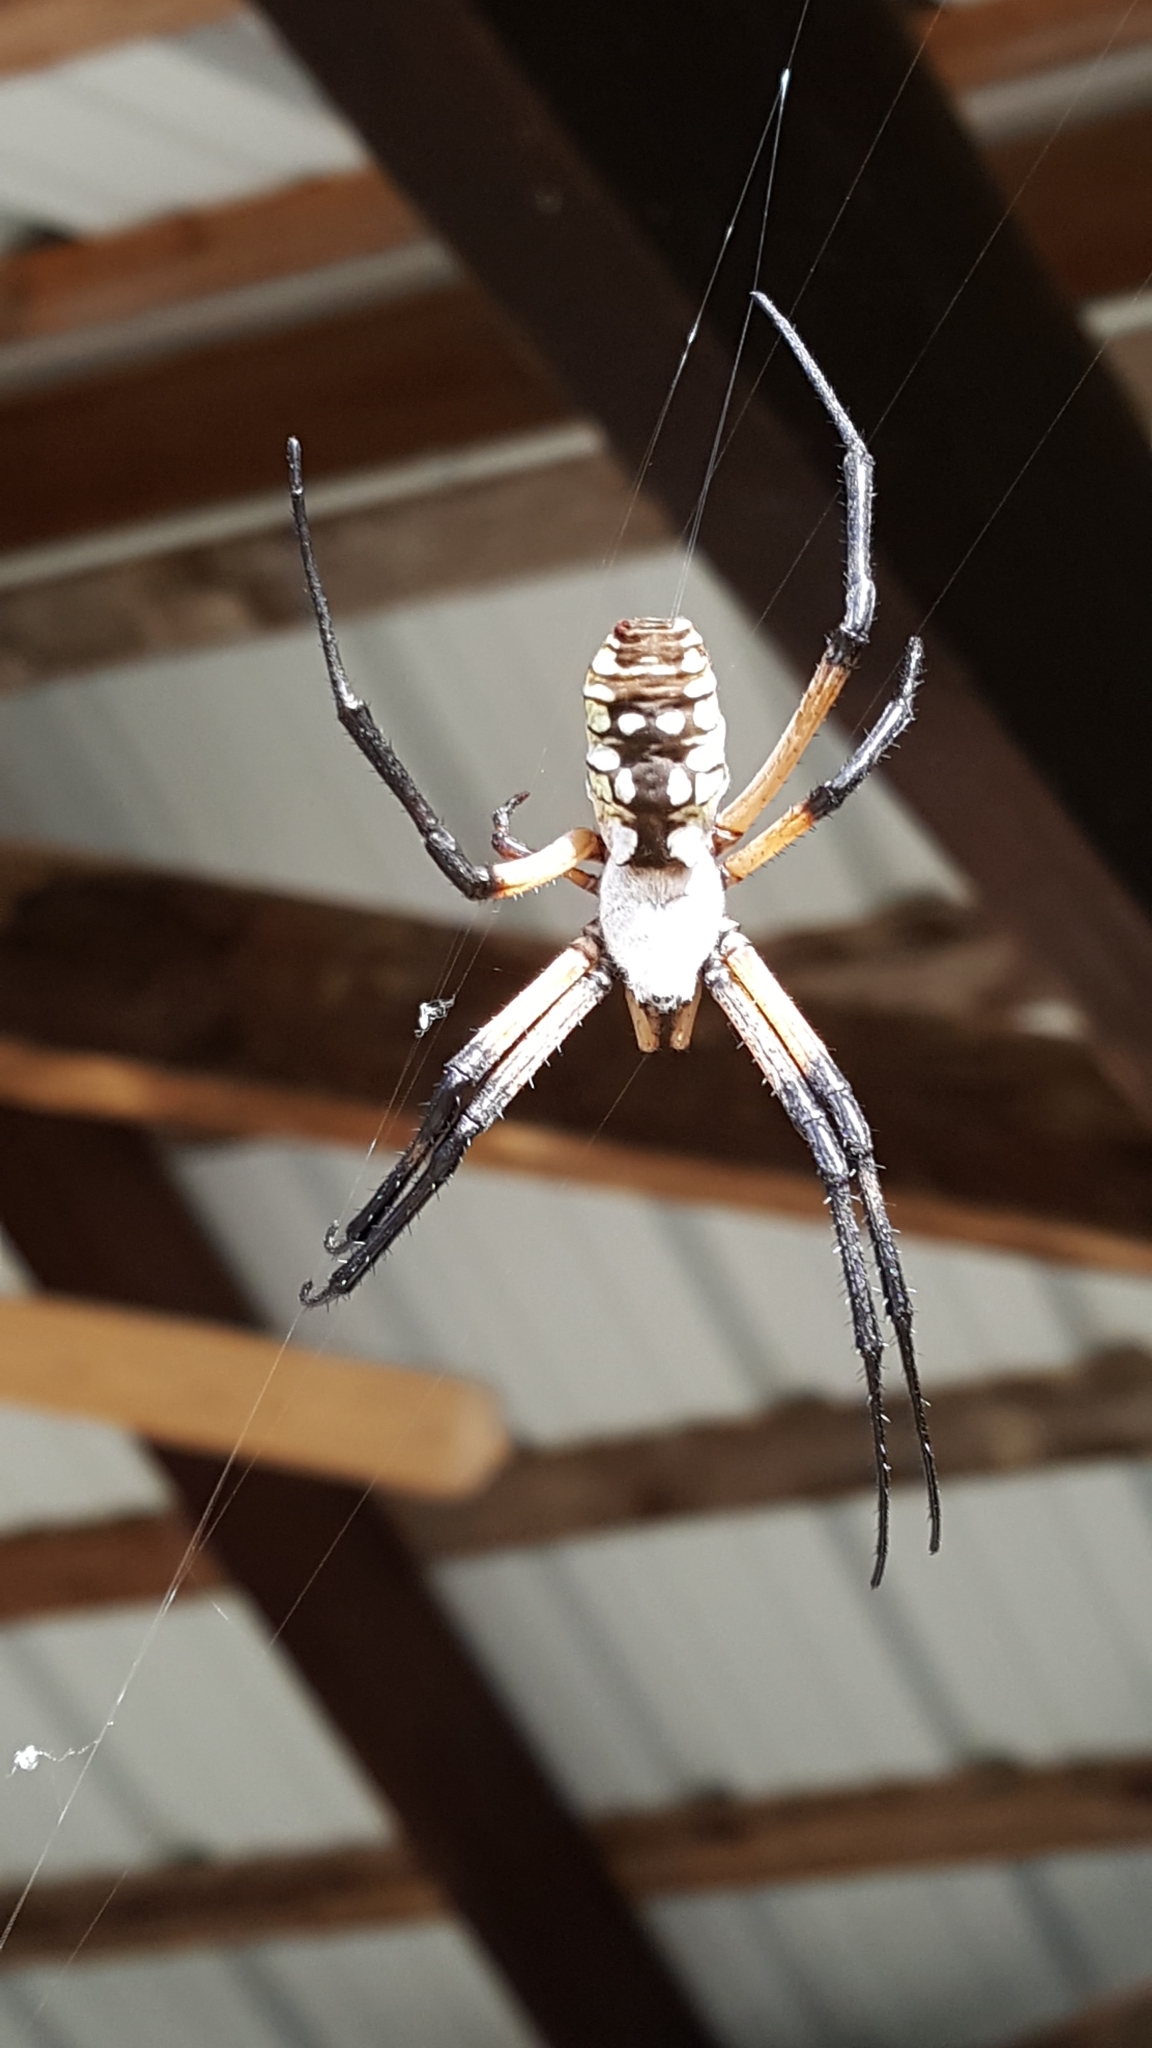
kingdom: Animalia
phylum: Arthropoda
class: Arachnida
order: Araneae
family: Araneidae
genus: Argiope
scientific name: Argiope aurantia
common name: Orb weavers
